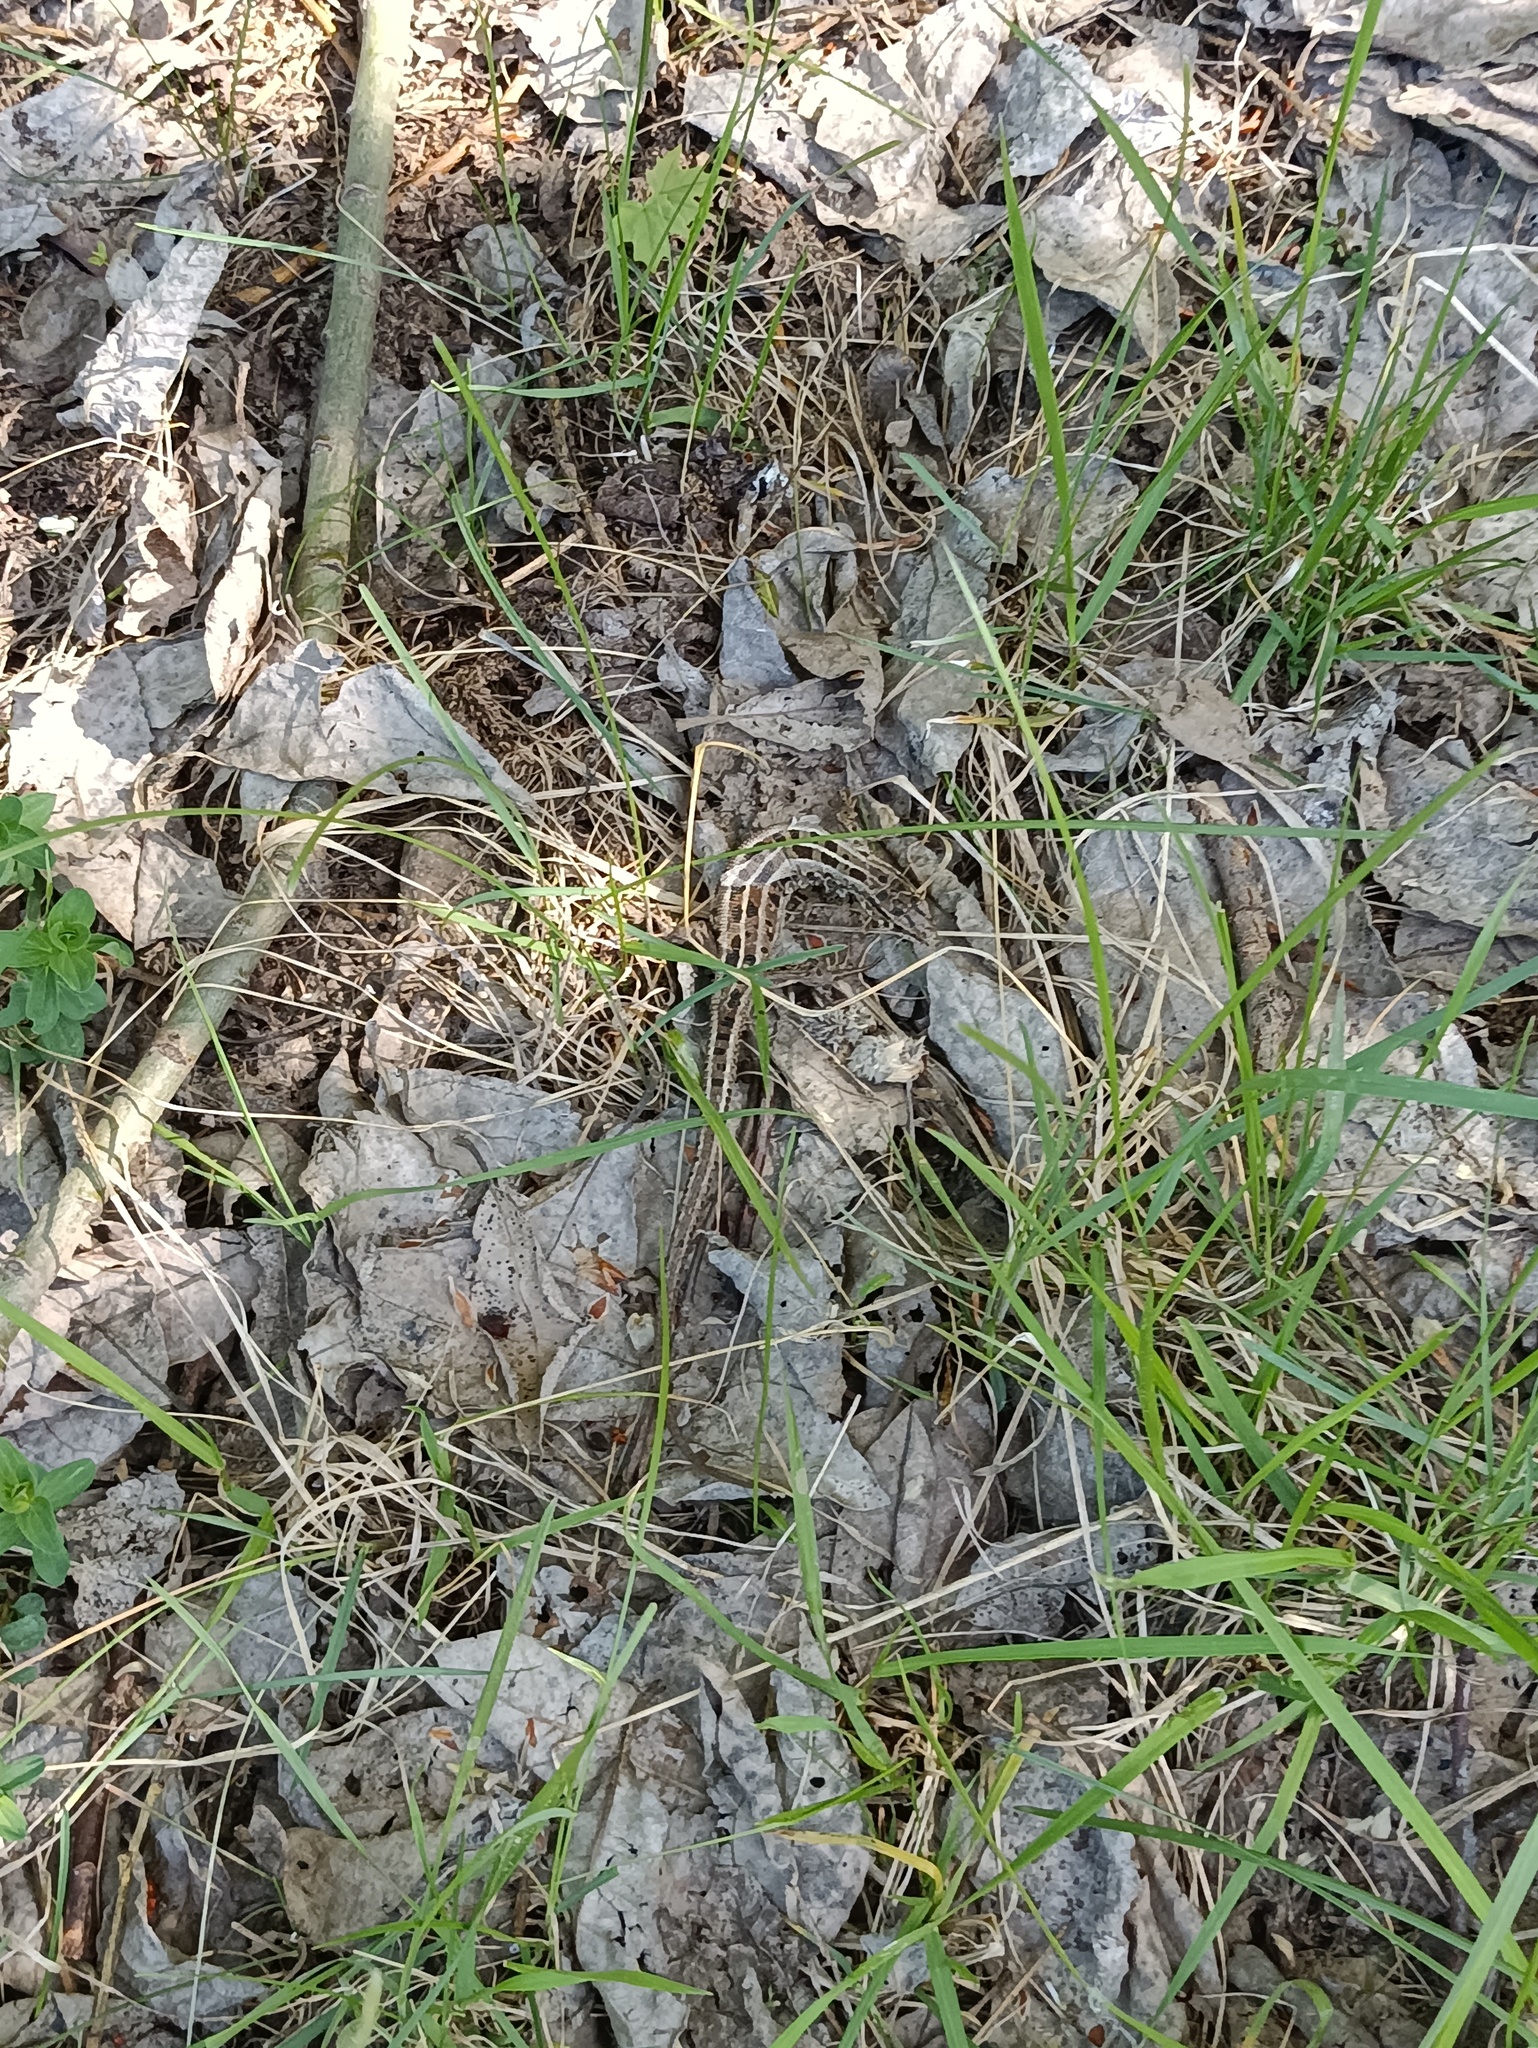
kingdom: Animalia
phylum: Chordata
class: Squamata
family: Lacertidae
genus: Lacerta
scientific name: Lacerta agilis
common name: Sand lizard
